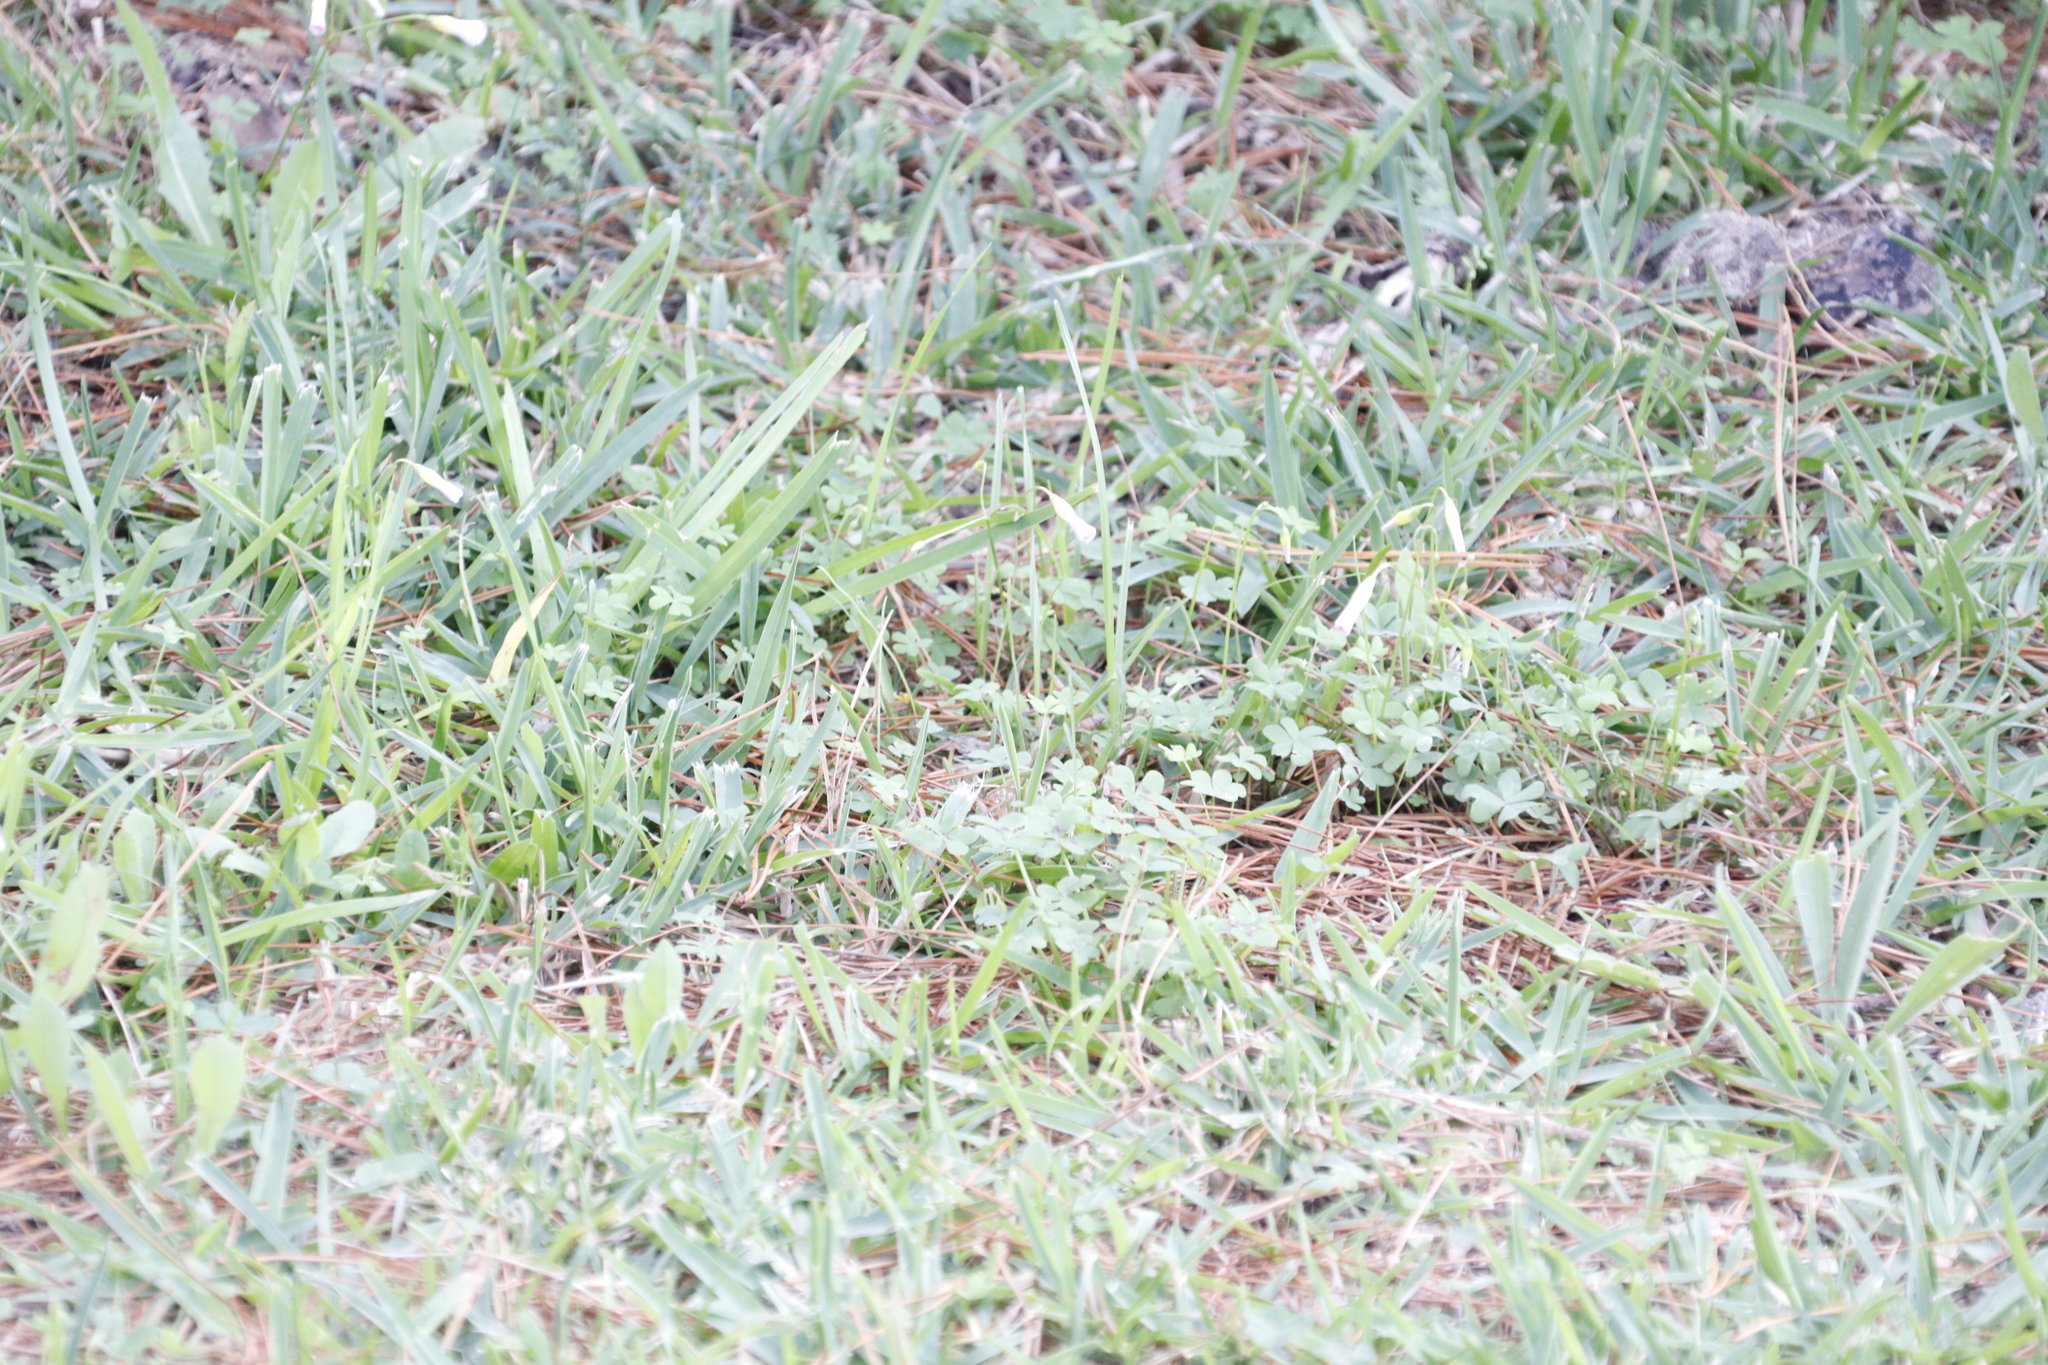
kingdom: Plantae
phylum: Tracheophyta
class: Magnoliopsida
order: Oxalidales
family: Oxalidaceae
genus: Oxalis
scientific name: Oxalis caprina
